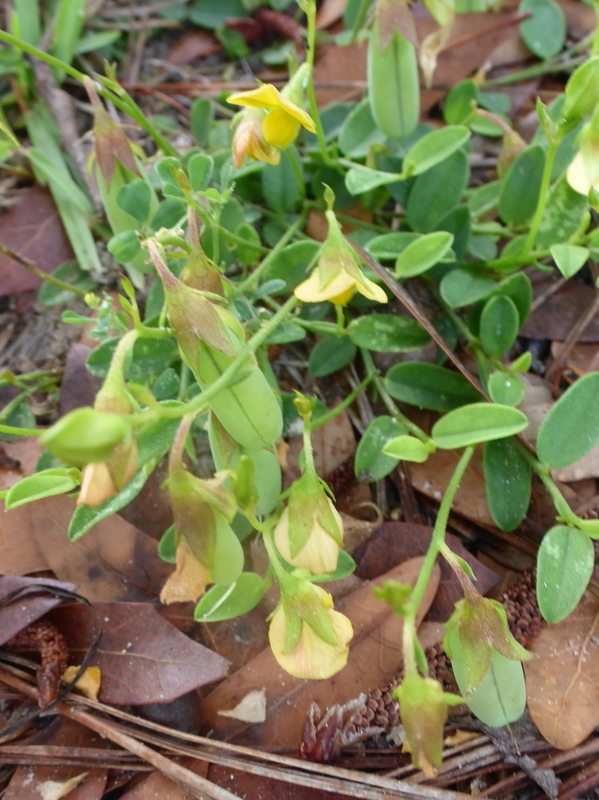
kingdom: Plantae
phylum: Tracheophyta
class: Magnoliopsida
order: Fabales
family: Fabaceae
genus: Crotalaria
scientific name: Crotalaria rotundifolia
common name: Prostrate rattlebox
